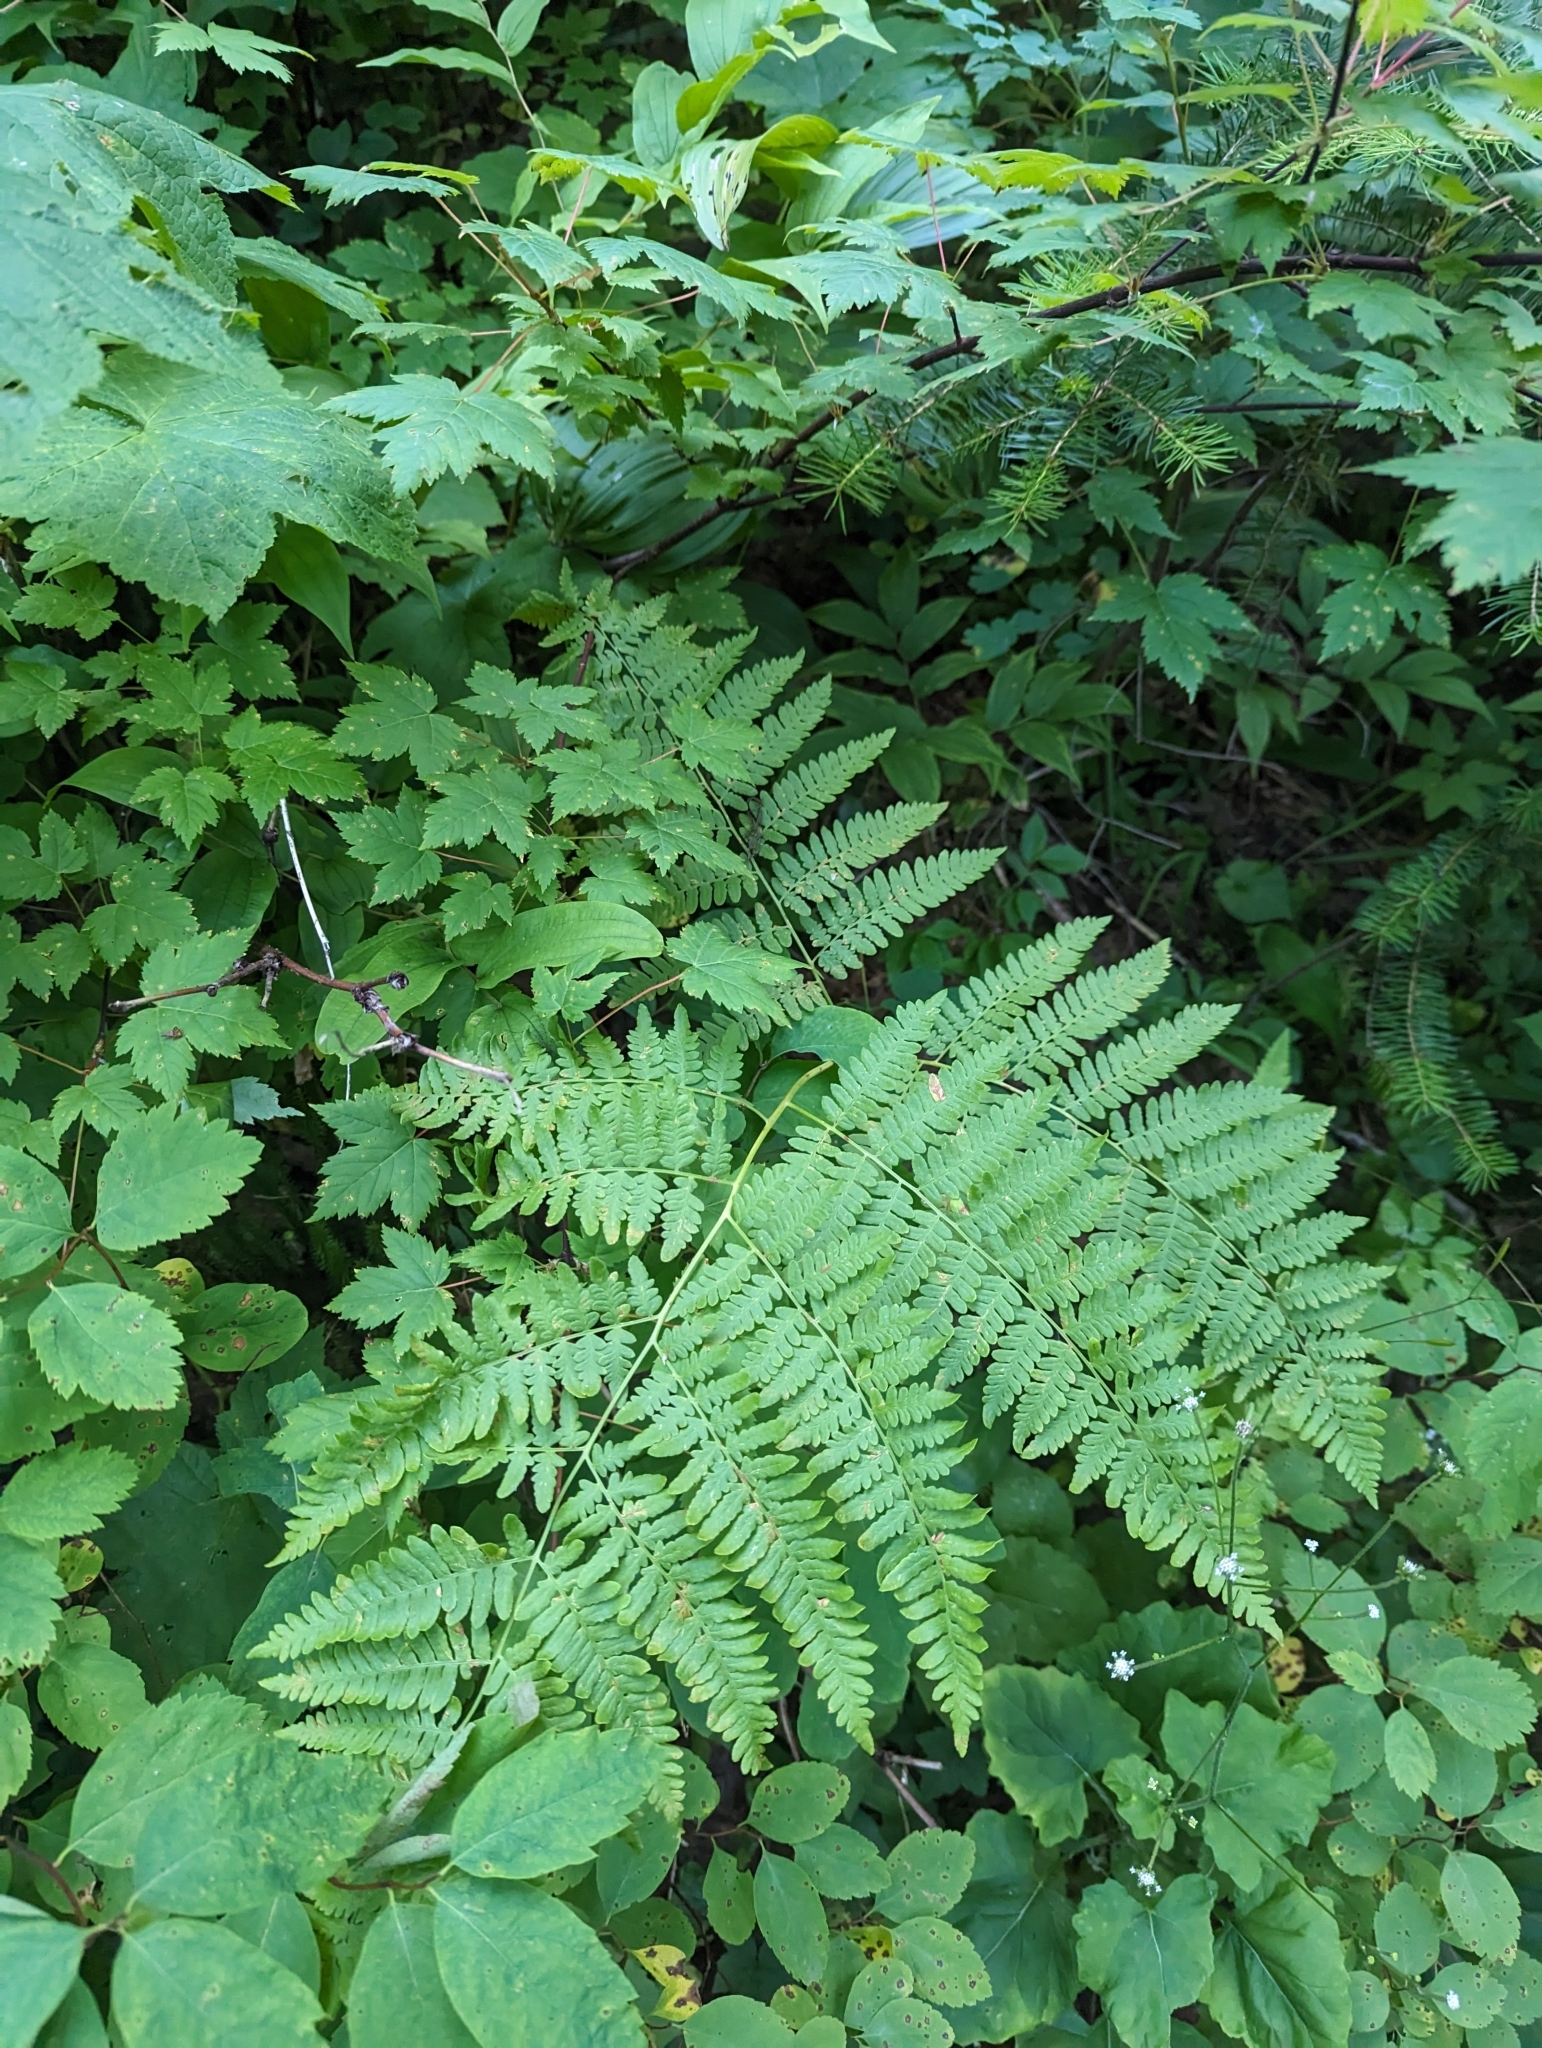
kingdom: Plantae
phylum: Tracheophyta
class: Polypodiopsida
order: Polypodiales
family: Dennstaedtiaceae
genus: Pteridium
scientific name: Pteridium aquilinum
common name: Bracken
